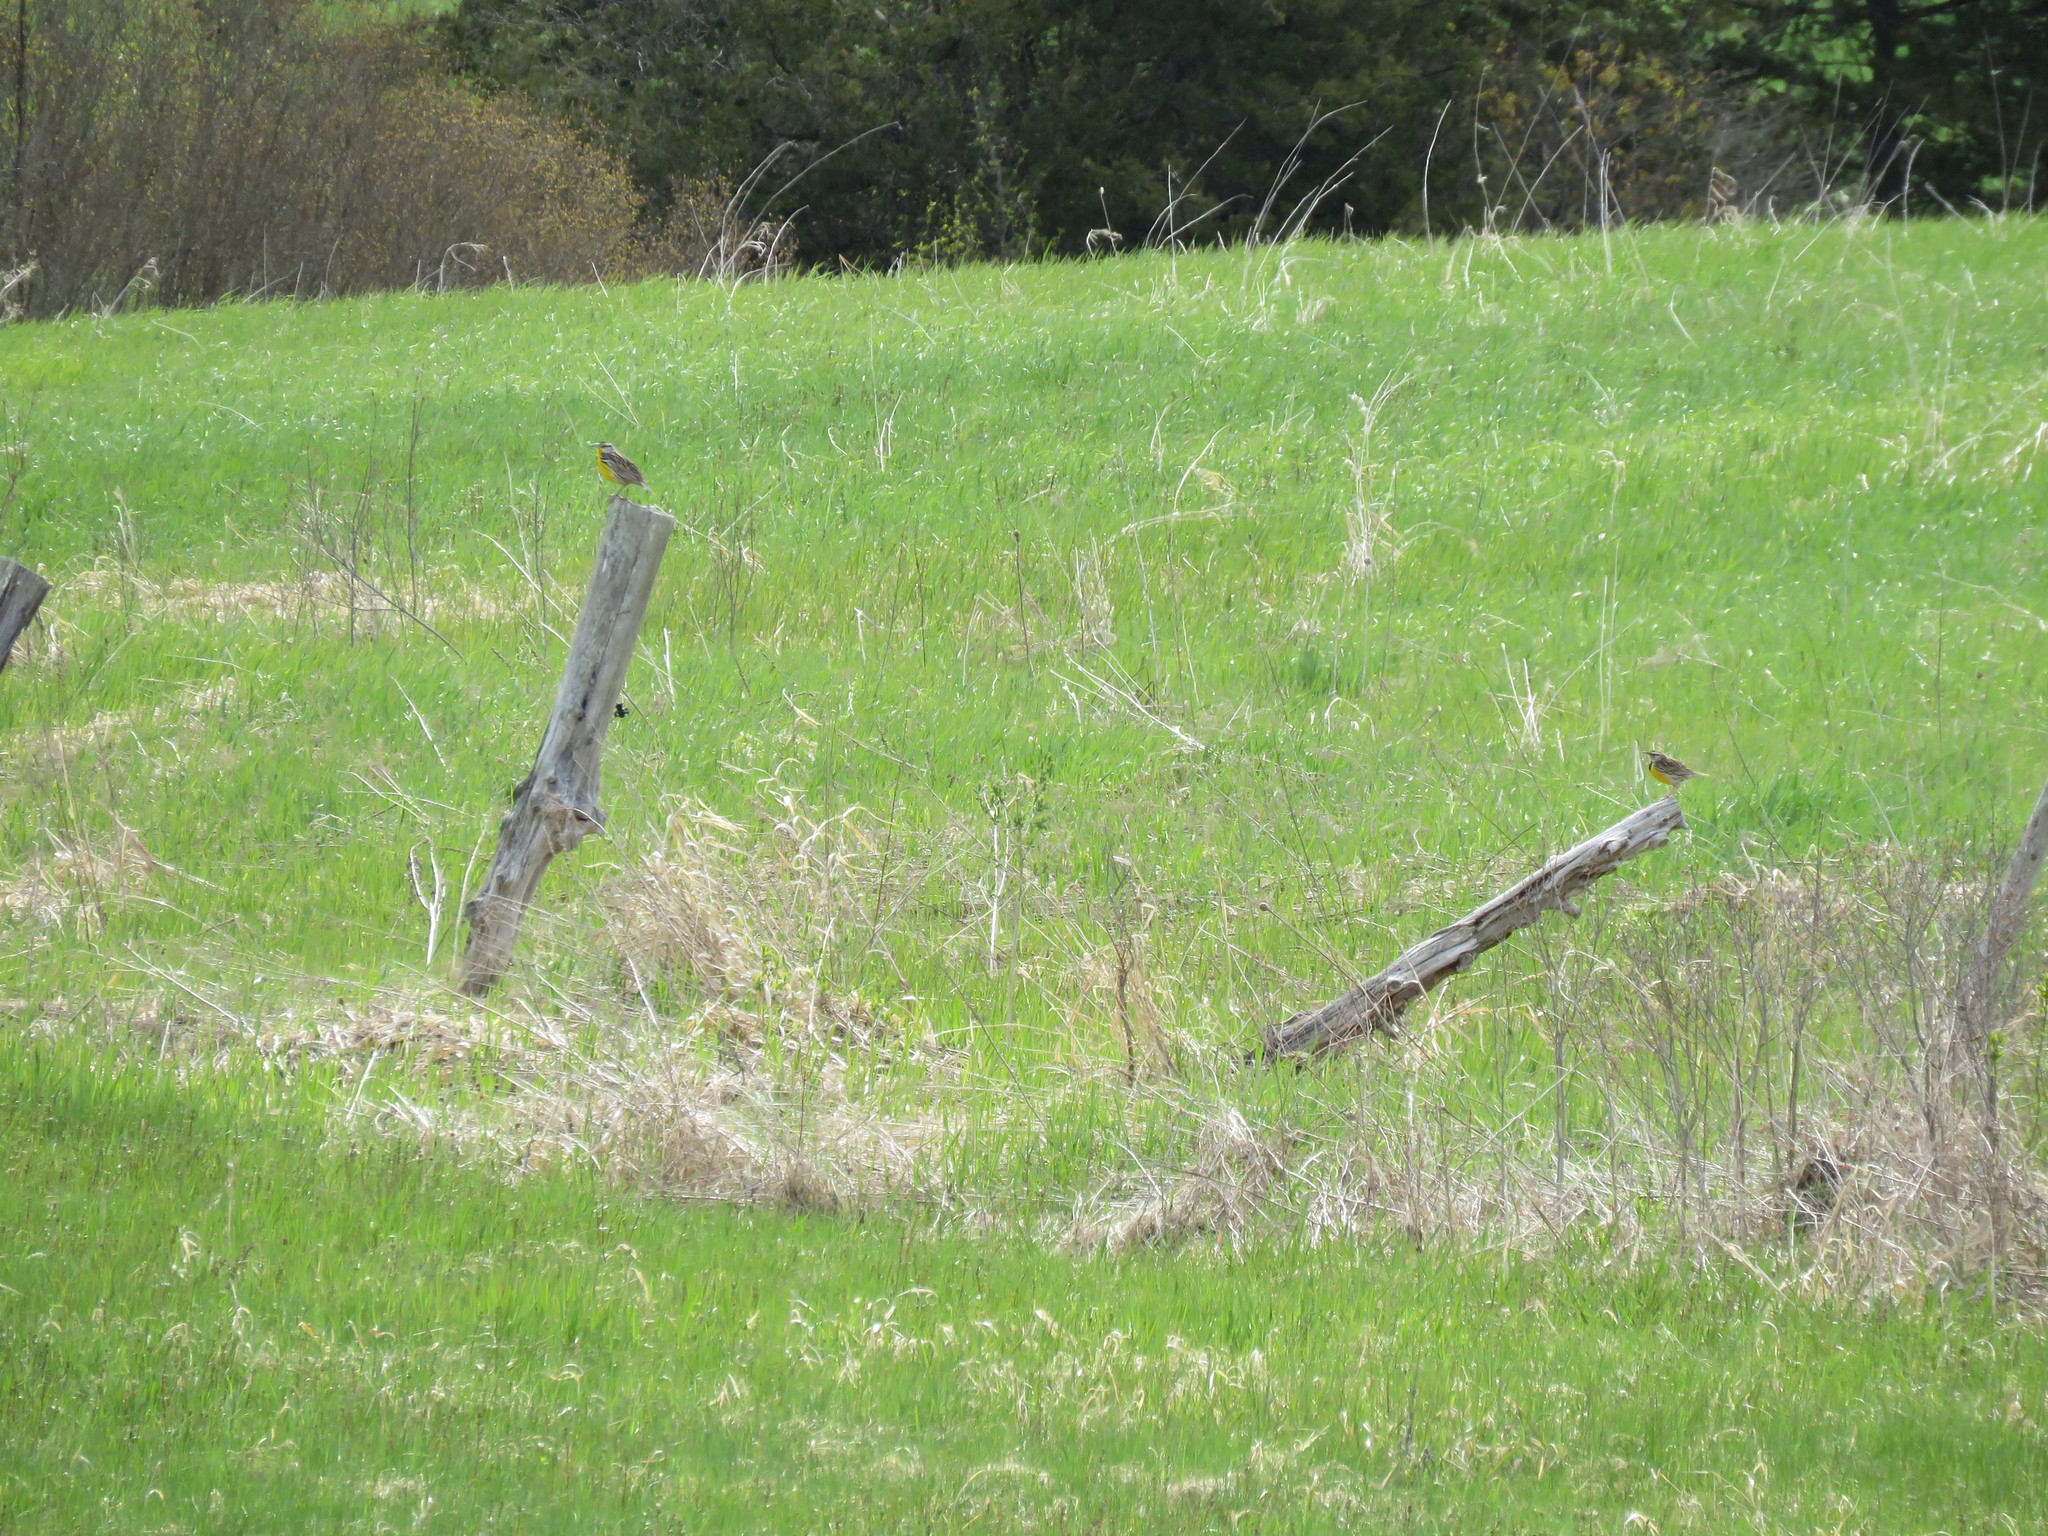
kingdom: Animalia
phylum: Chordata
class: Aves
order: Passeriformes
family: Icteridae
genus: Sturnella
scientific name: Sturnella magna
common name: Eastern meadowlark
